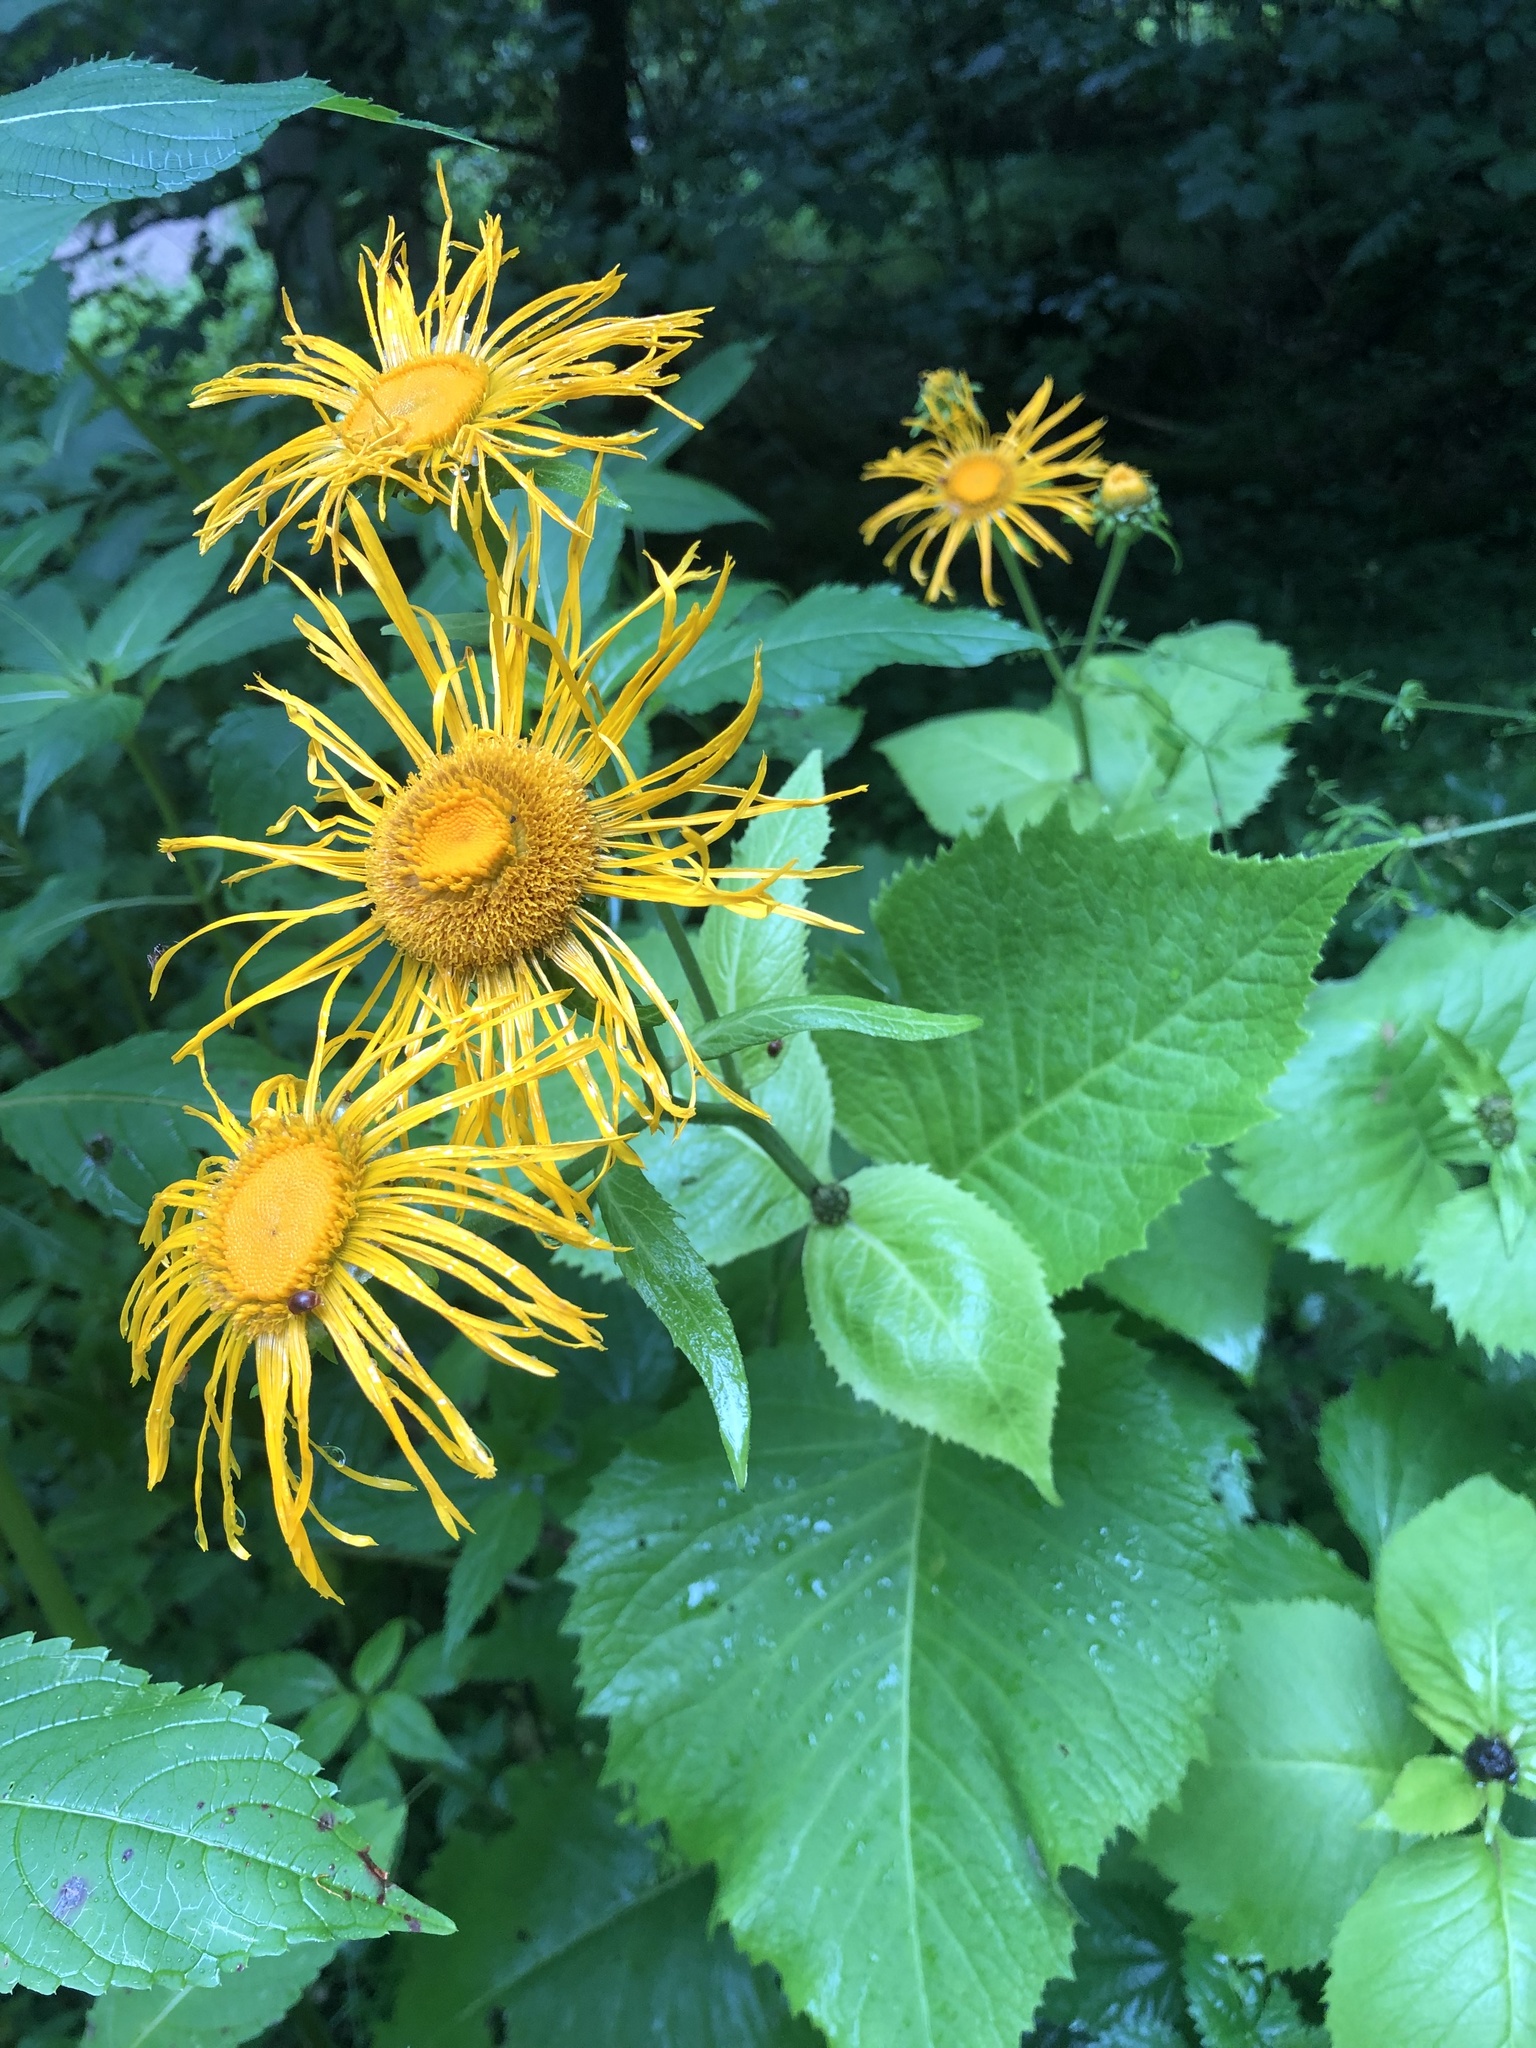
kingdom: Plantae
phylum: Tracheophyta
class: Magnoliopsida
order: Asterales
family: Asteraceae
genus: Telekia
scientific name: Telekia speciosa
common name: Yellow oxeye
